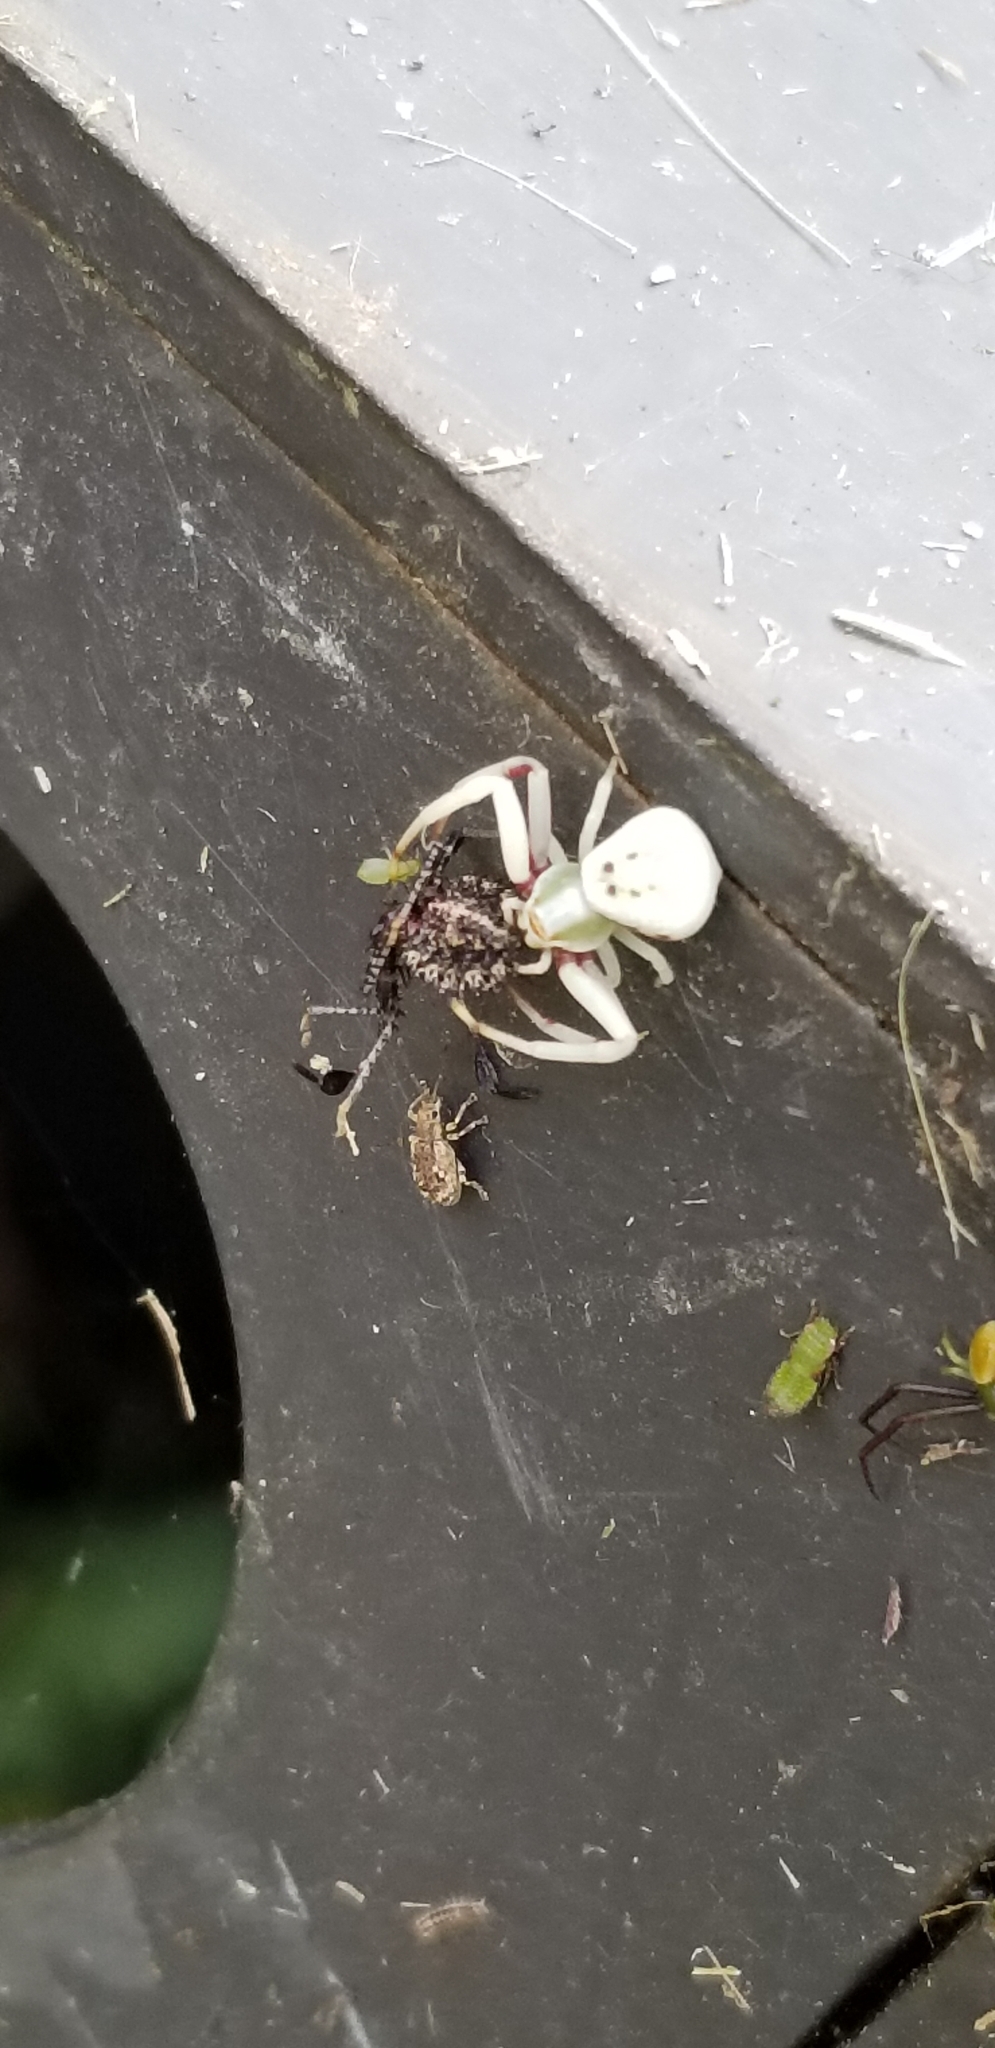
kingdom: Animalia
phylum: Arthropoda
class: Arachnida
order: Araneae
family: Thomisidae
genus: Misumenoides
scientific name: Misumenoides formosipes
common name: White-banded crab spider
